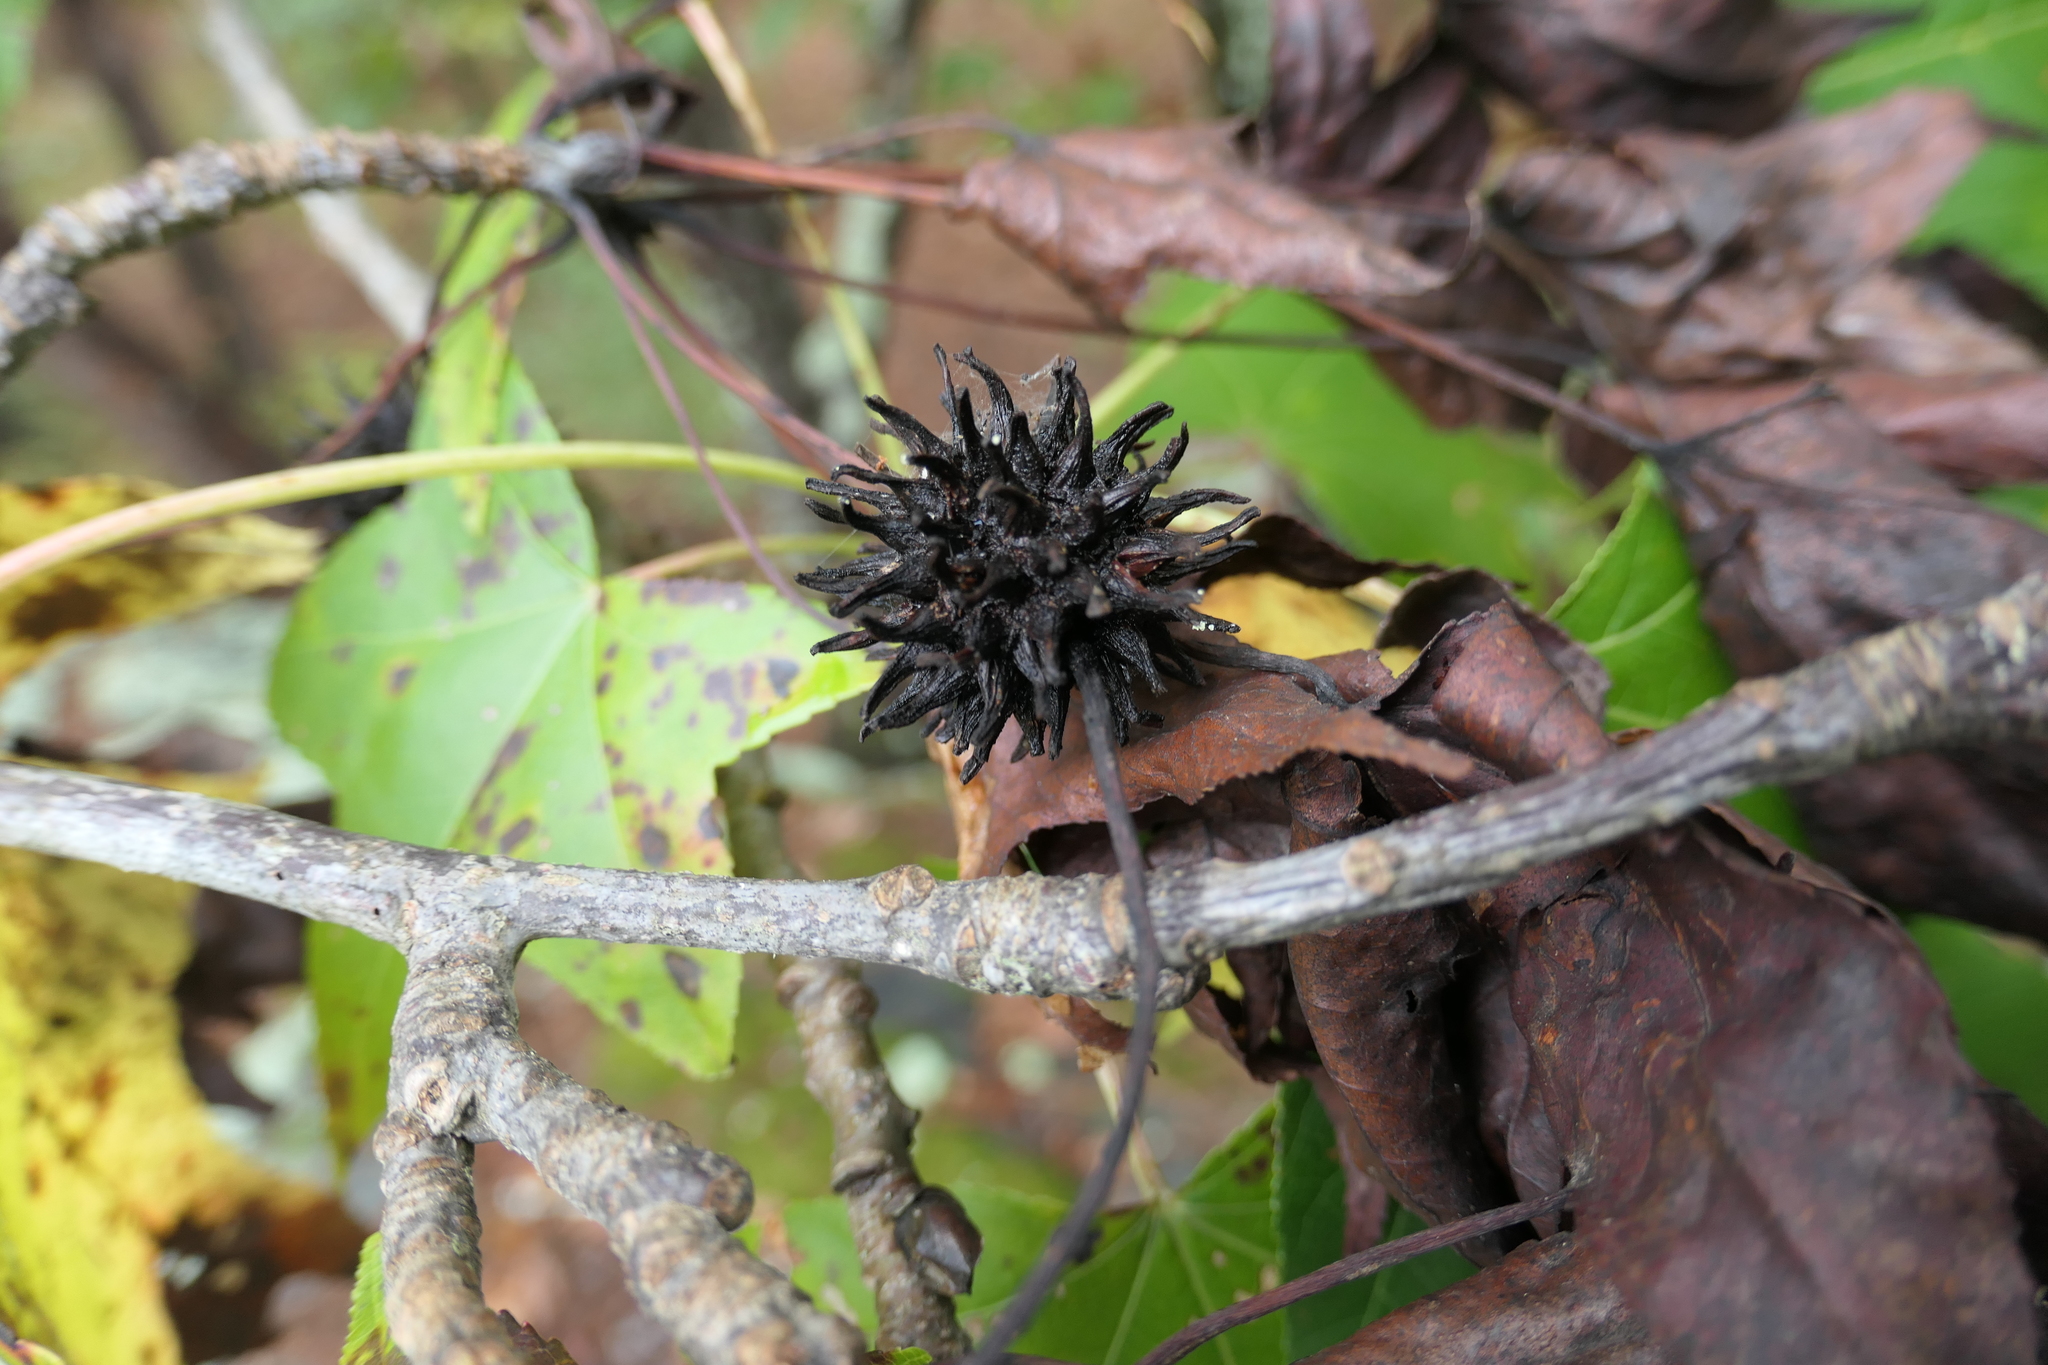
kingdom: Plantae
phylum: Tracheophyta
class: Magnoliopsida
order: Saxifragales
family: Altingiaceae
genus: Liquidambar
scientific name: Liquidambar styraciflua
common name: Sweet gum
